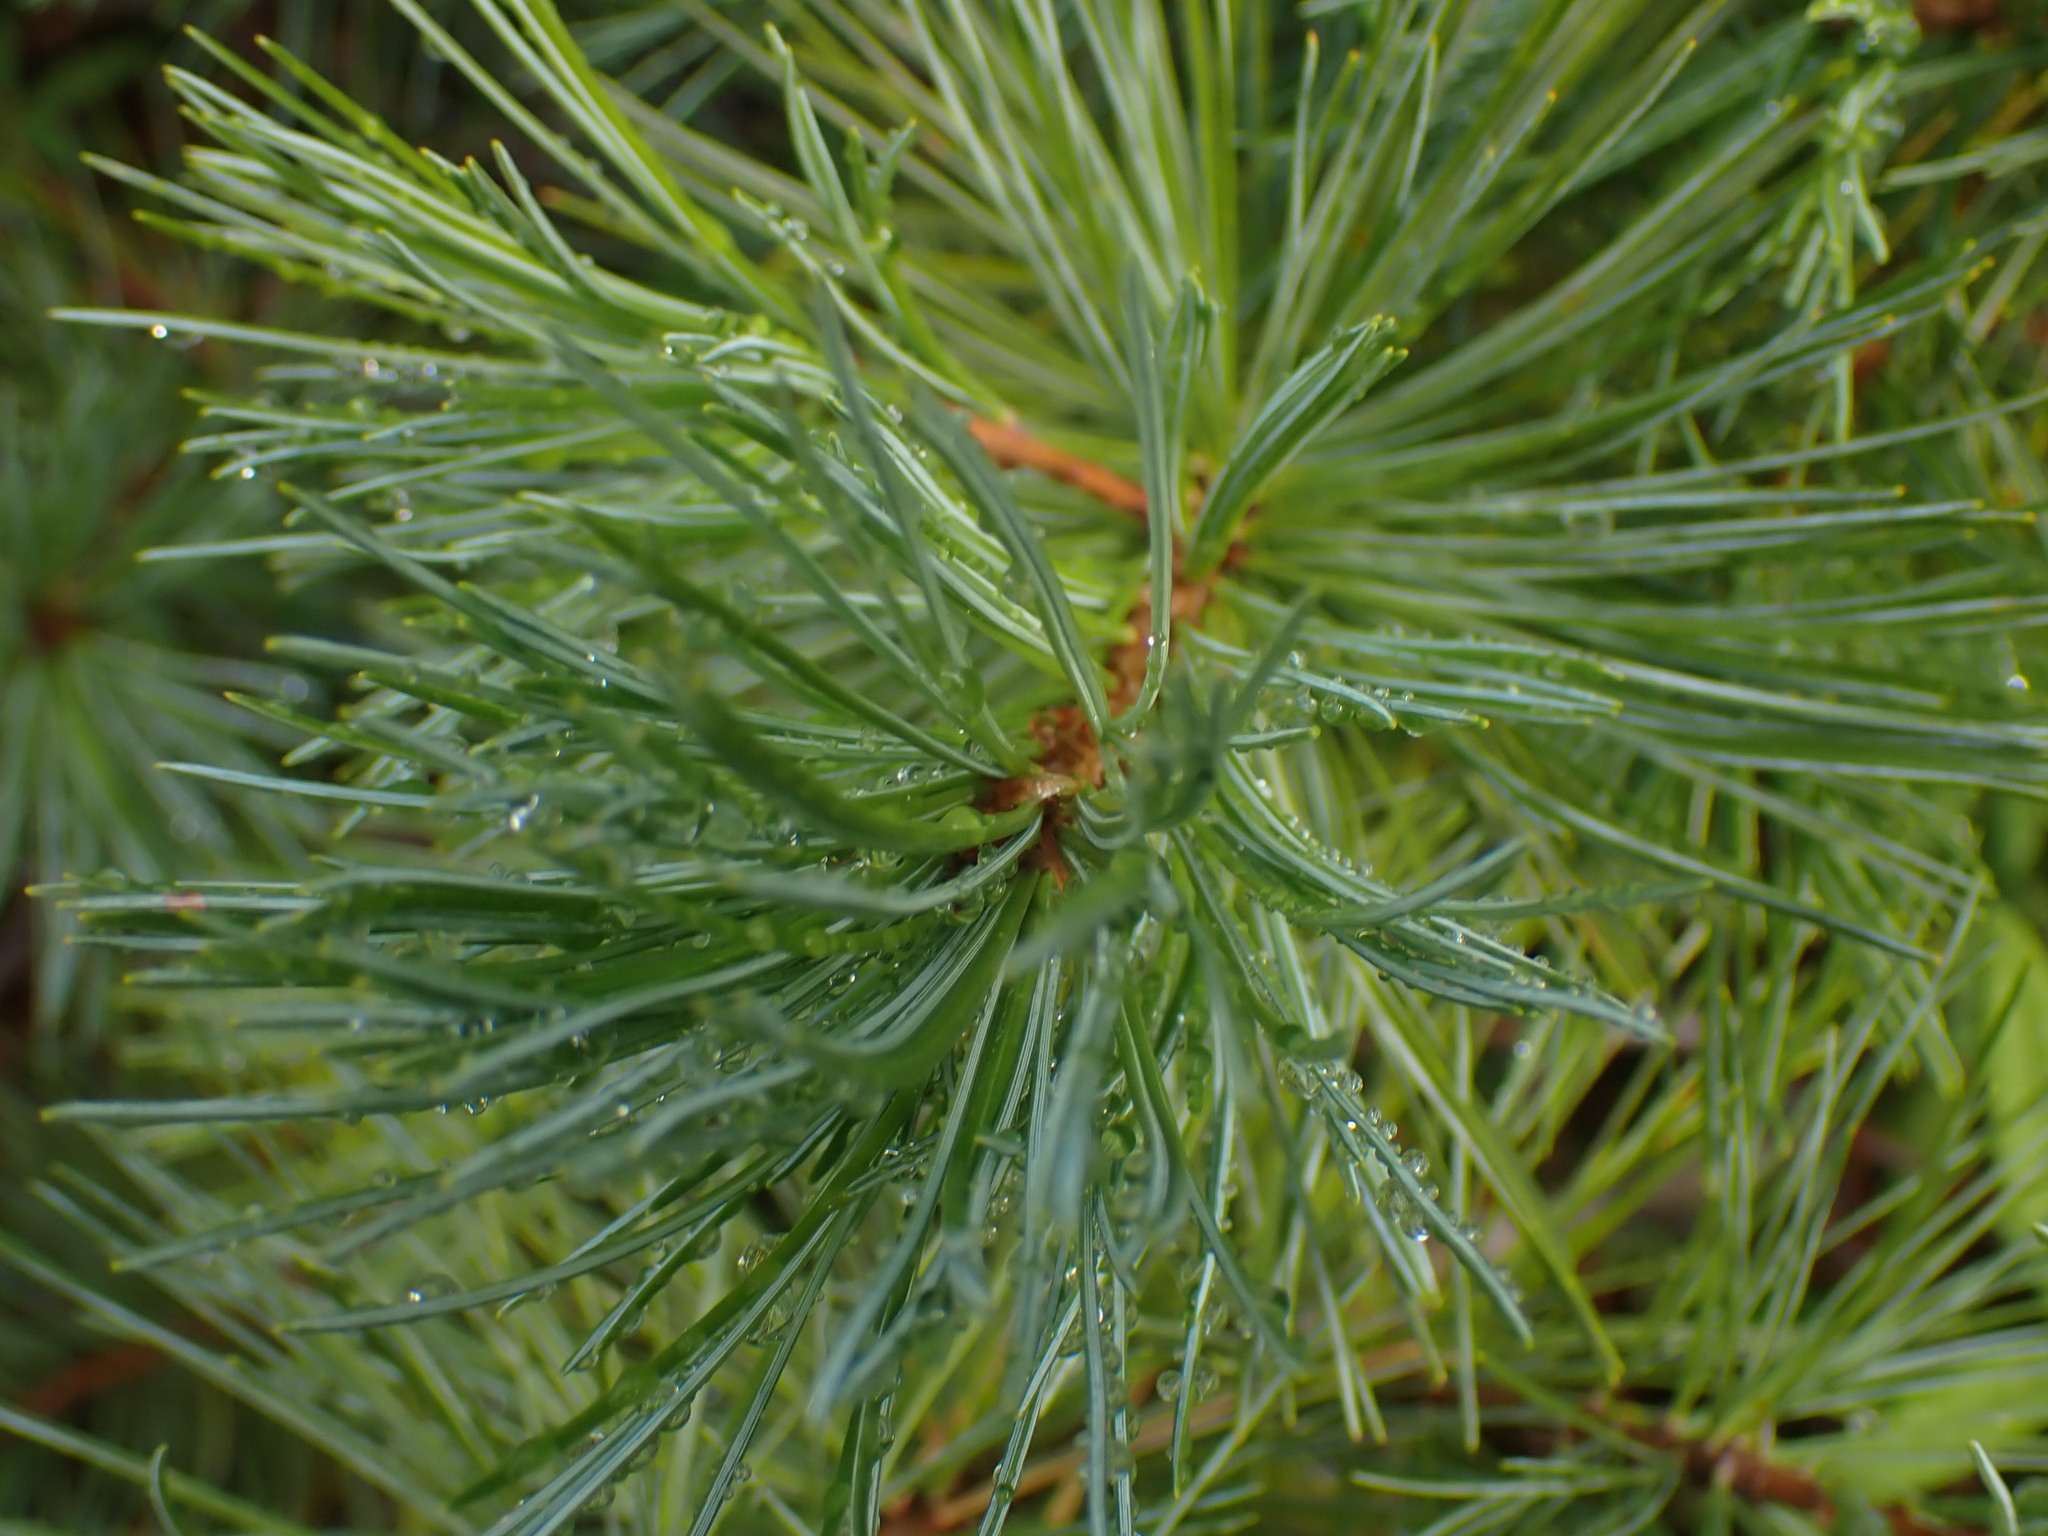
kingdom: Plantae
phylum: Tracheophyta
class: Pinopsida
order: Pinales
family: Pinaceae
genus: Pinus
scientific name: Pinus monticola
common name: Western white pine
